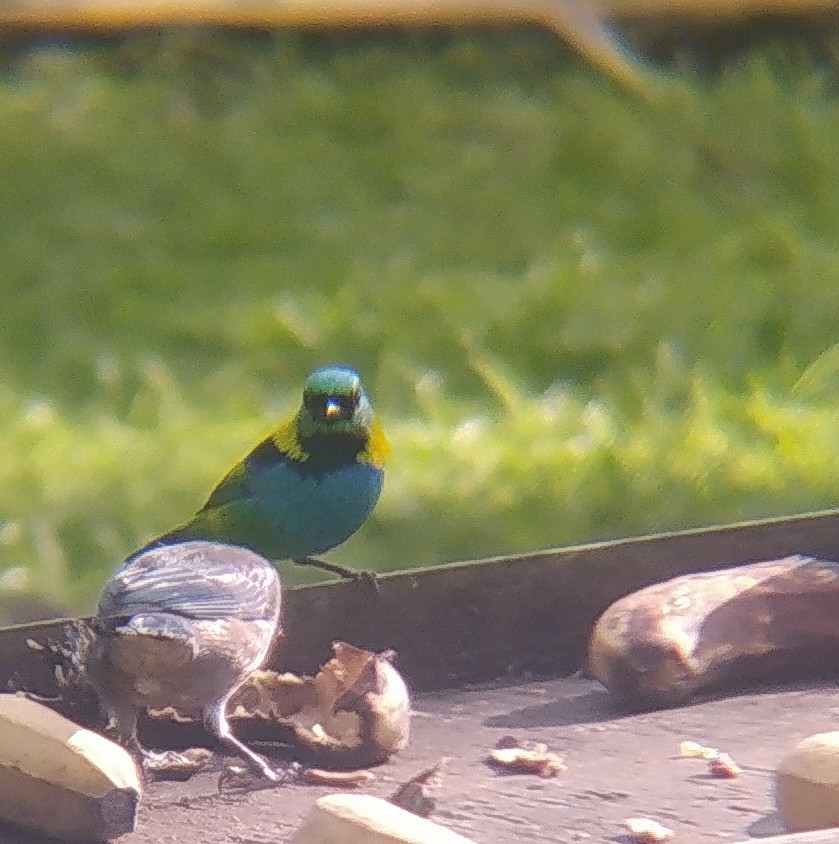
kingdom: Animalia
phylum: Chordata
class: Aves
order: Passeriformes
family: Thraupidae
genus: Tangara
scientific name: Tangara seledon
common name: Green-headed tanager
